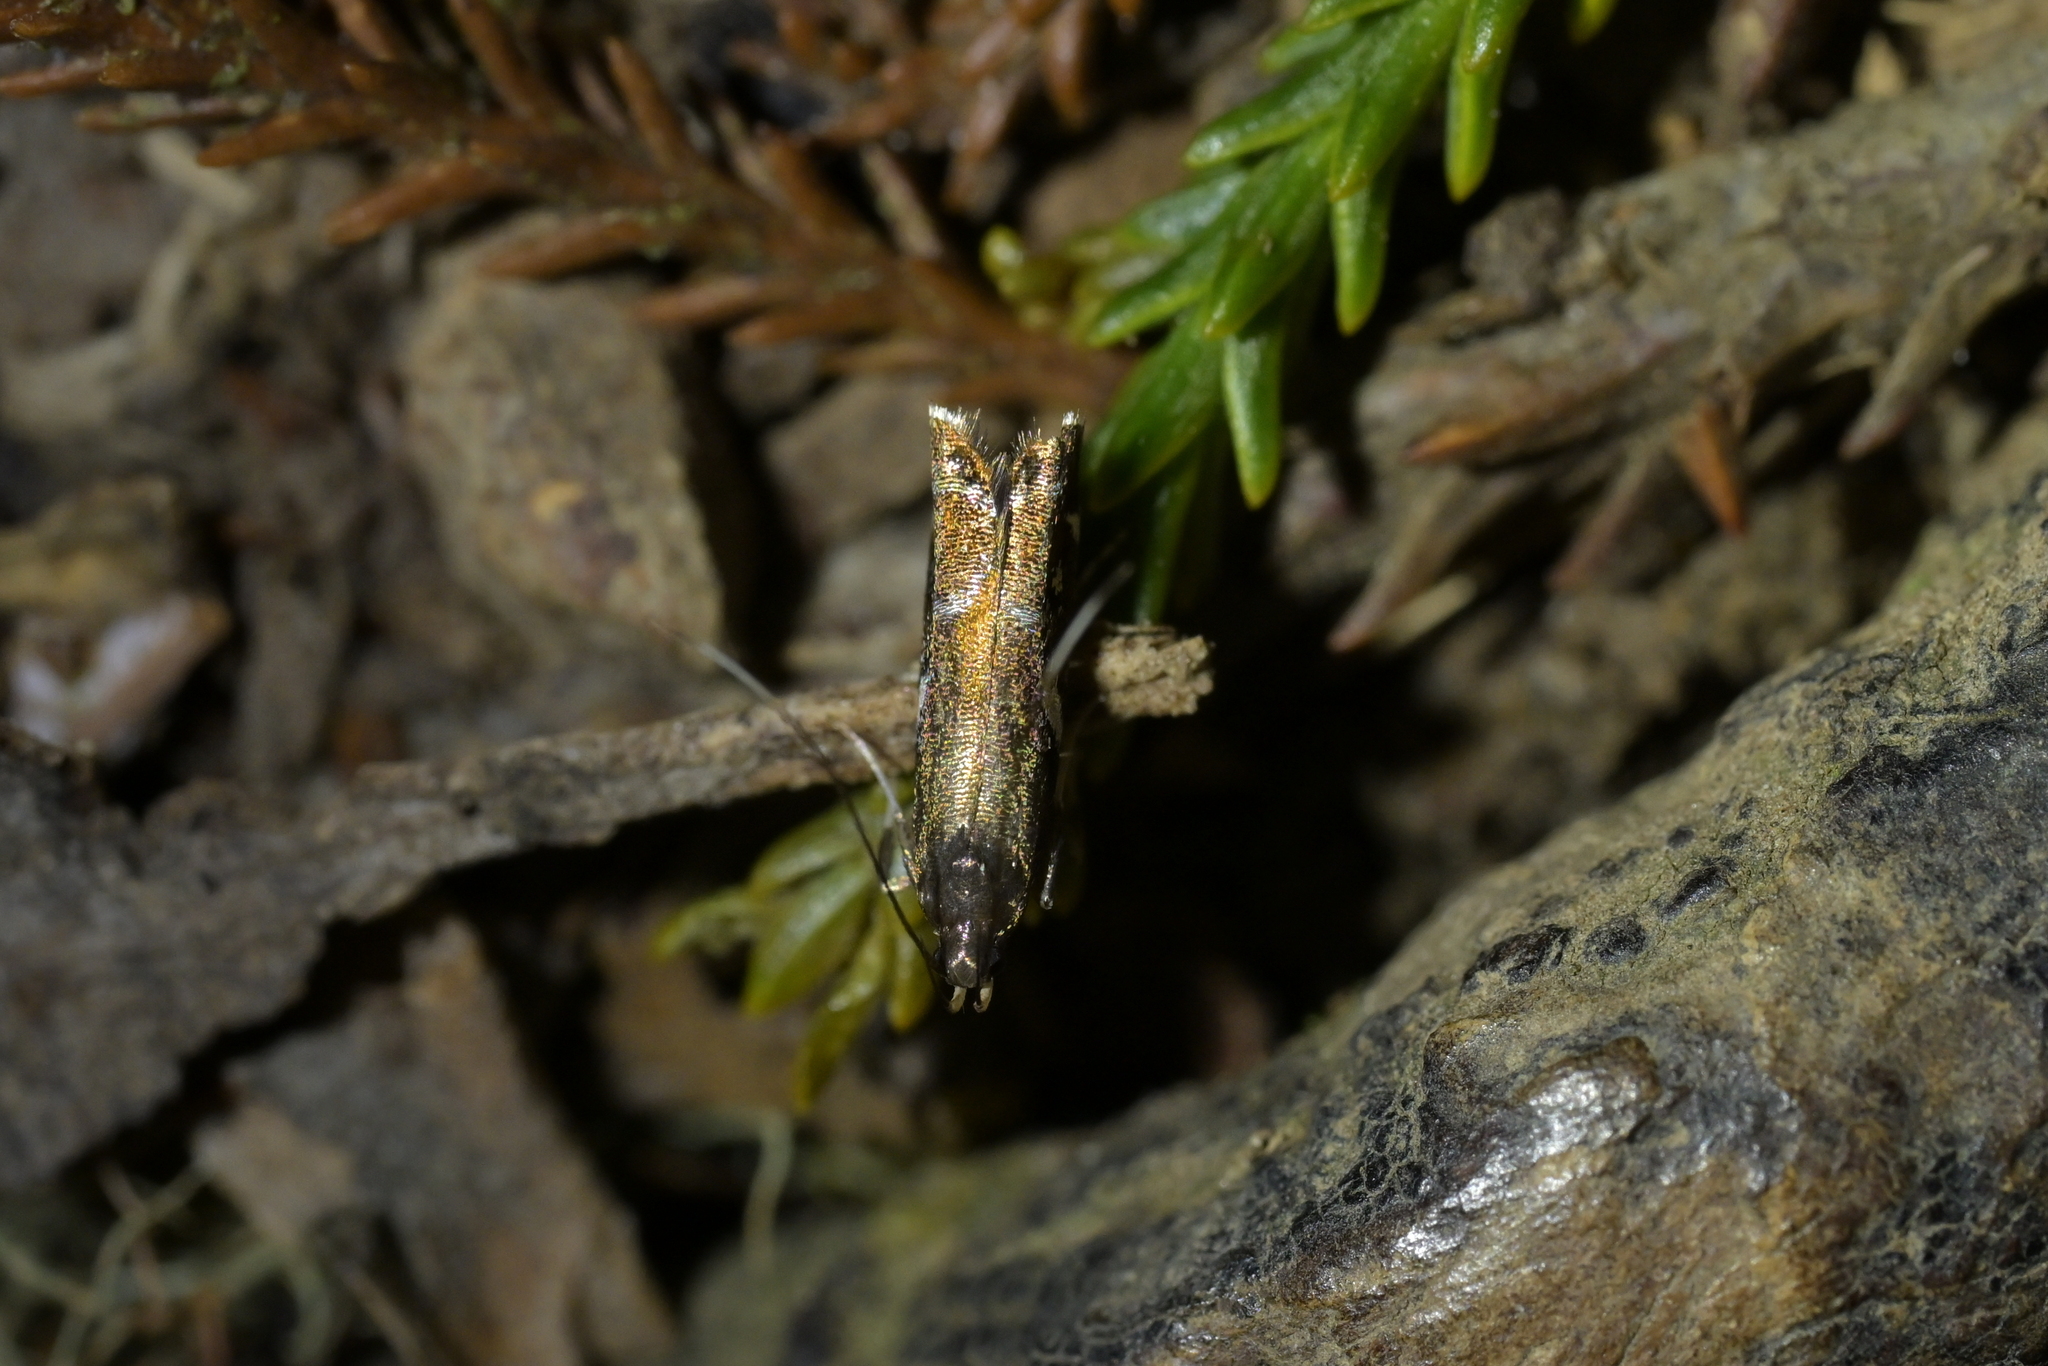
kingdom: Animalia
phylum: Arthropoda
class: Insecta
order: Lepidoptera
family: Depressariidae
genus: Compsistis
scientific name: Compsistis bifaciella
